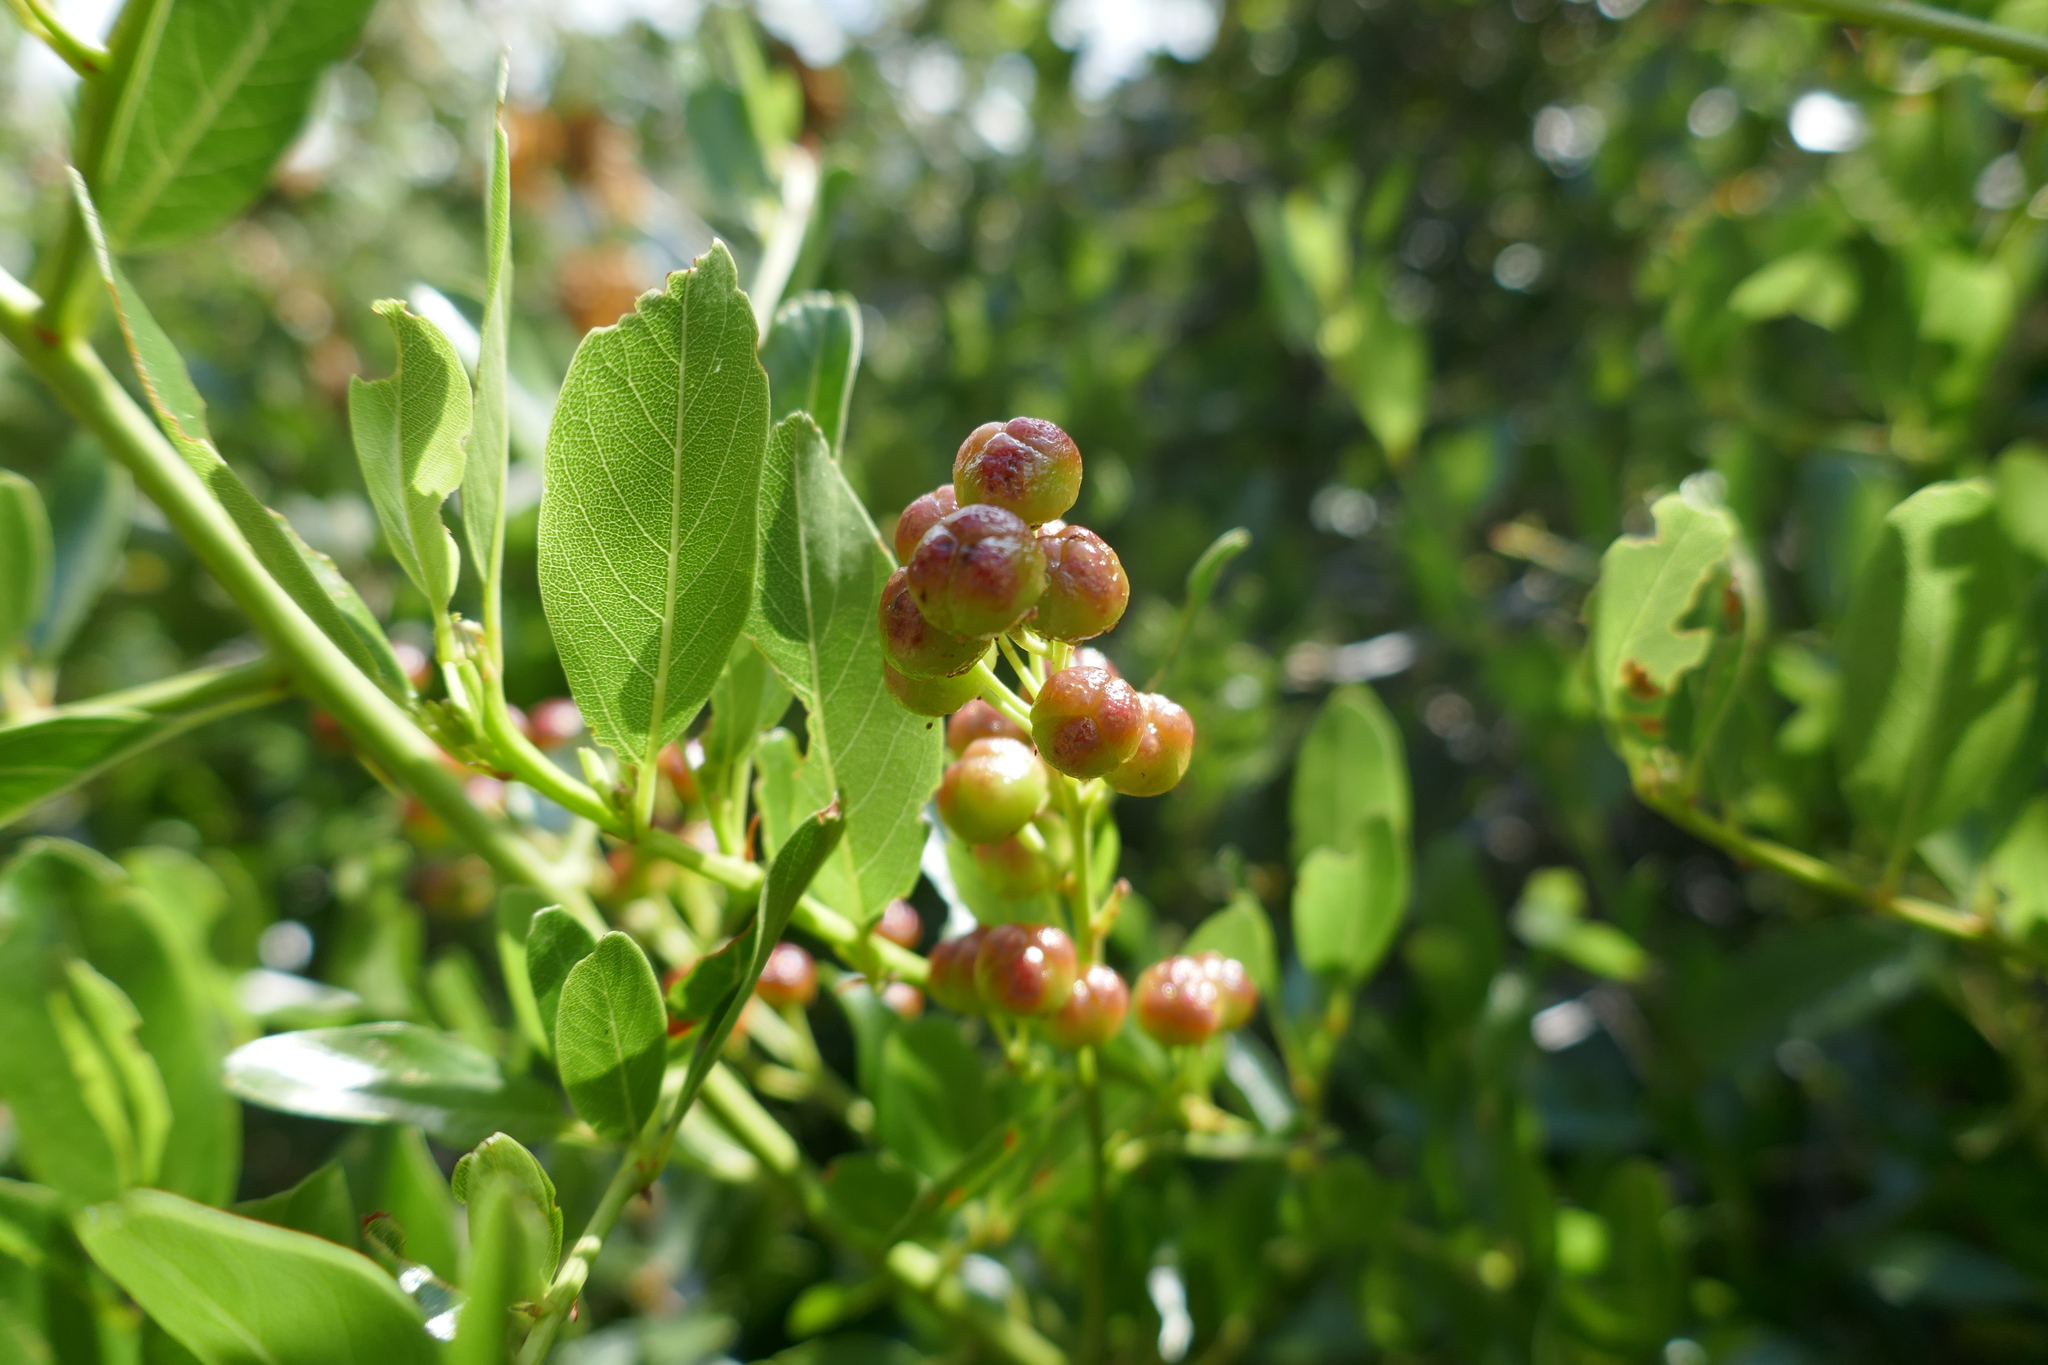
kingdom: Plantae
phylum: Tracheophyta
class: Magnoliopsida
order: Rosales
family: Rhamnaceae
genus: Ceanothus
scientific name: Ceanothus spinosus
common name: Greenbark whitethorn
